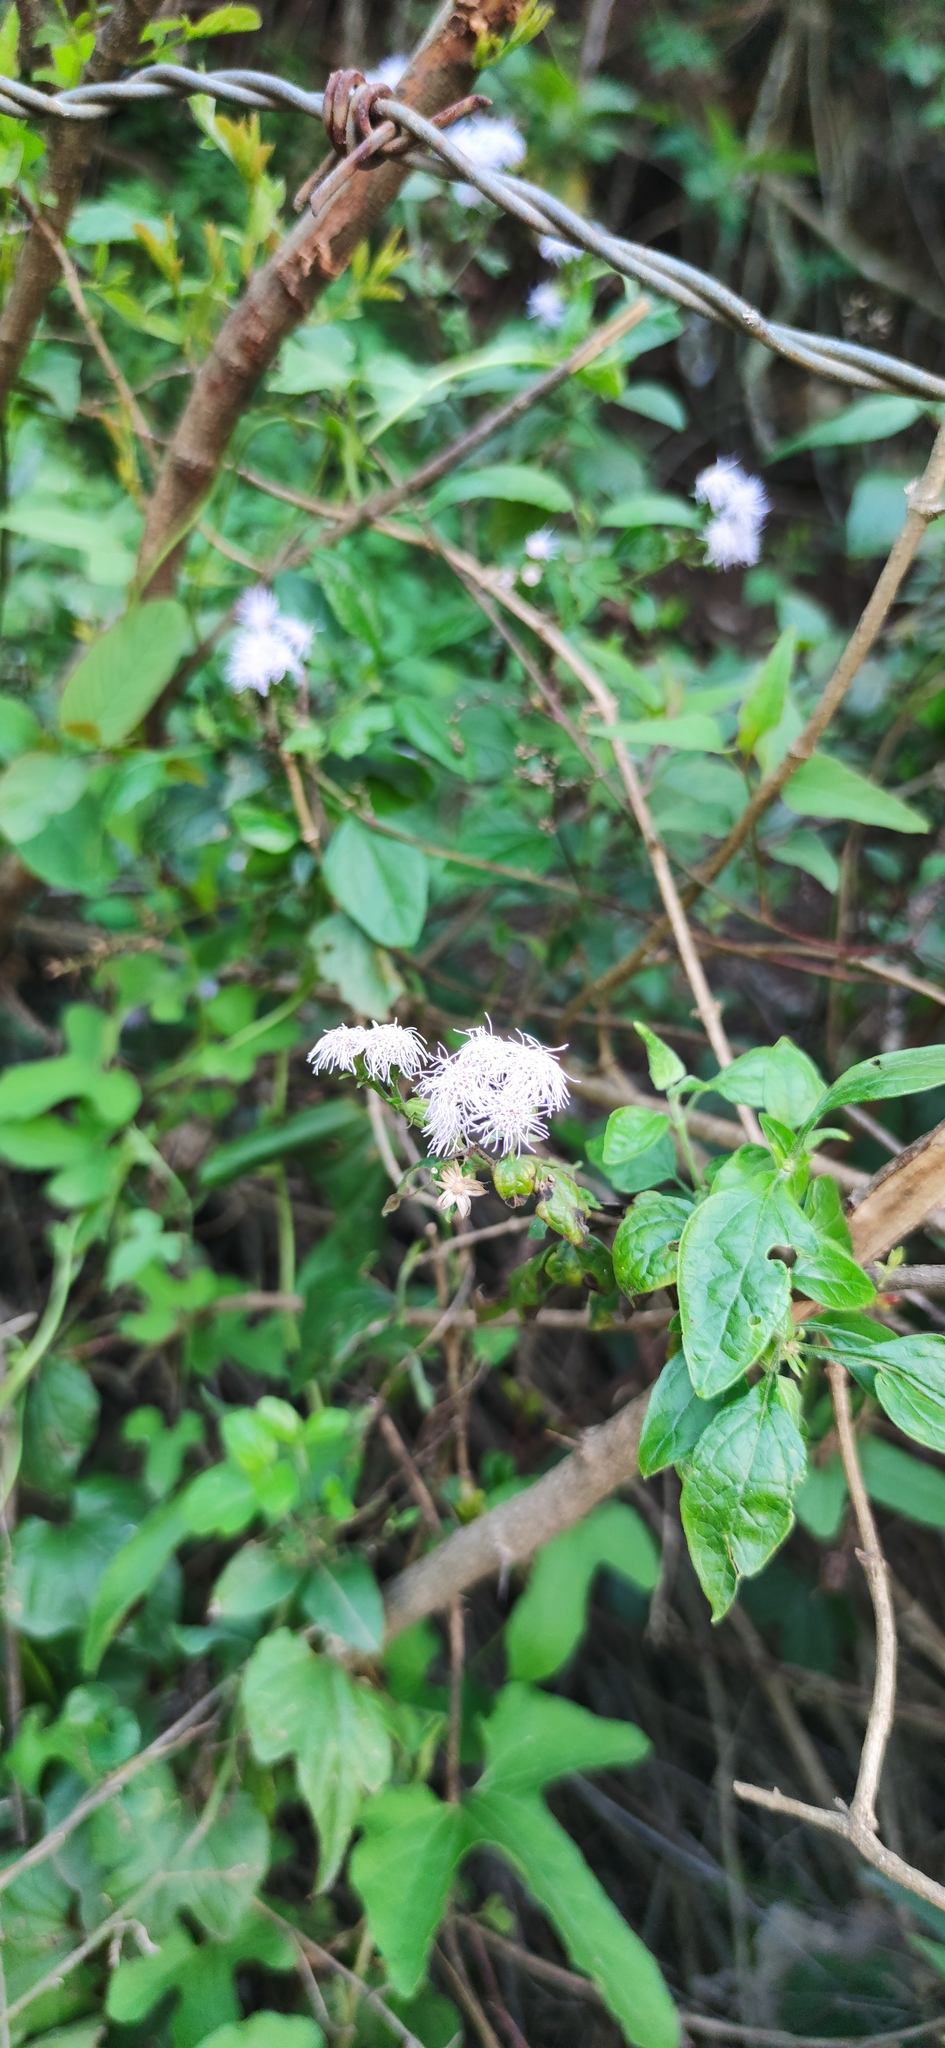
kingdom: Plantae
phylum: Tracheophyta
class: Magnoliopsida
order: Asterales
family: Asteraceae
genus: Tamaulipa
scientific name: Tamaulipa azurea
